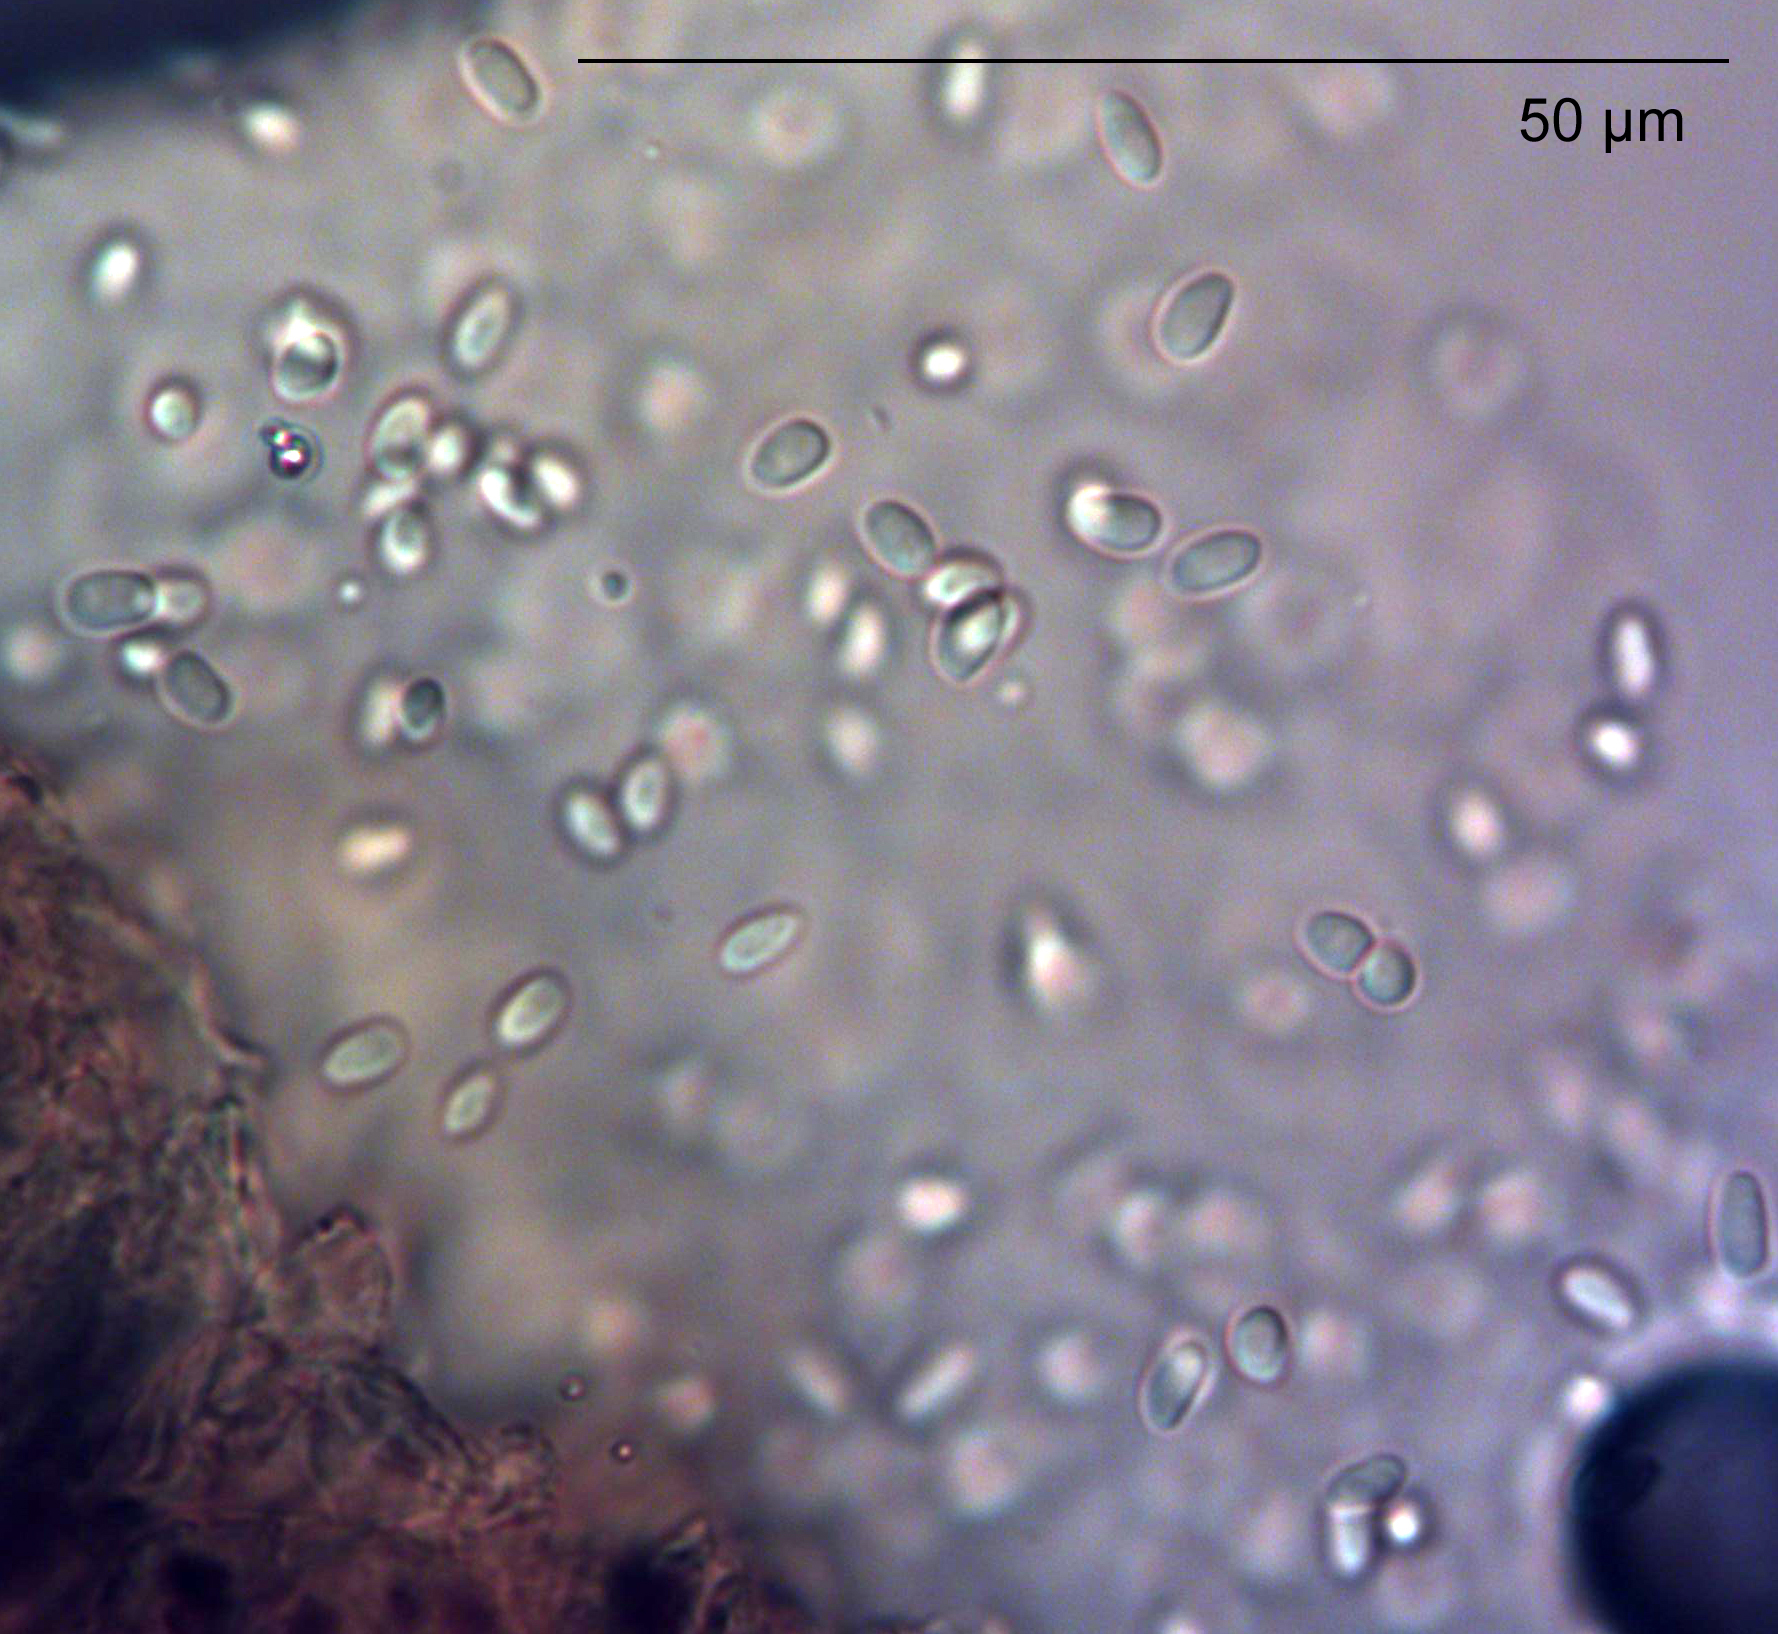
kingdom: Fungi
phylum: Ascomycota
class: Dothideomycetes
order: Pleosporales
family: Didymellaceae
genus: Boeremia
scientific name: Boeremia hedericola
